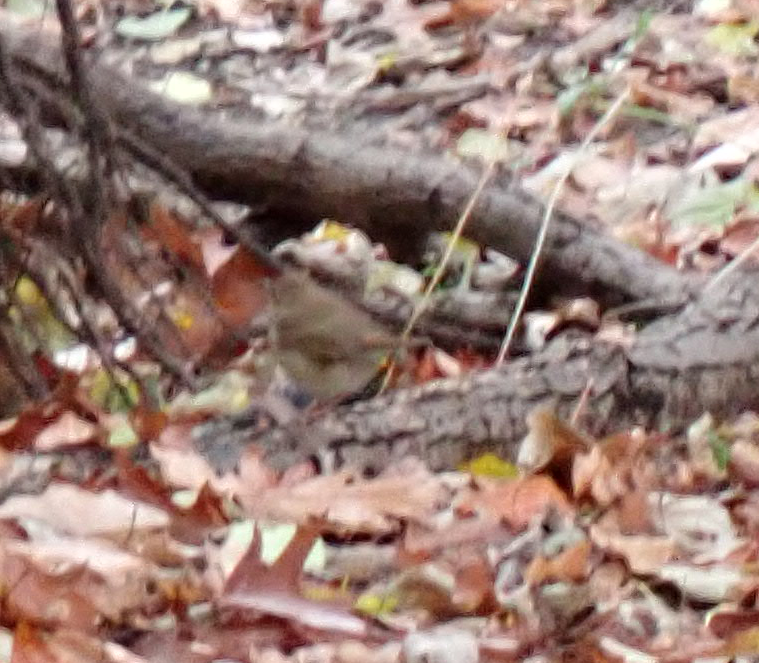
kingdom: Animalia
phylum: Chordata
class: Aves
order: Passeriformes
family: Turdidae
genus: Catharus
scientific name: Catharus guttatus
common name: Hermit thrush
